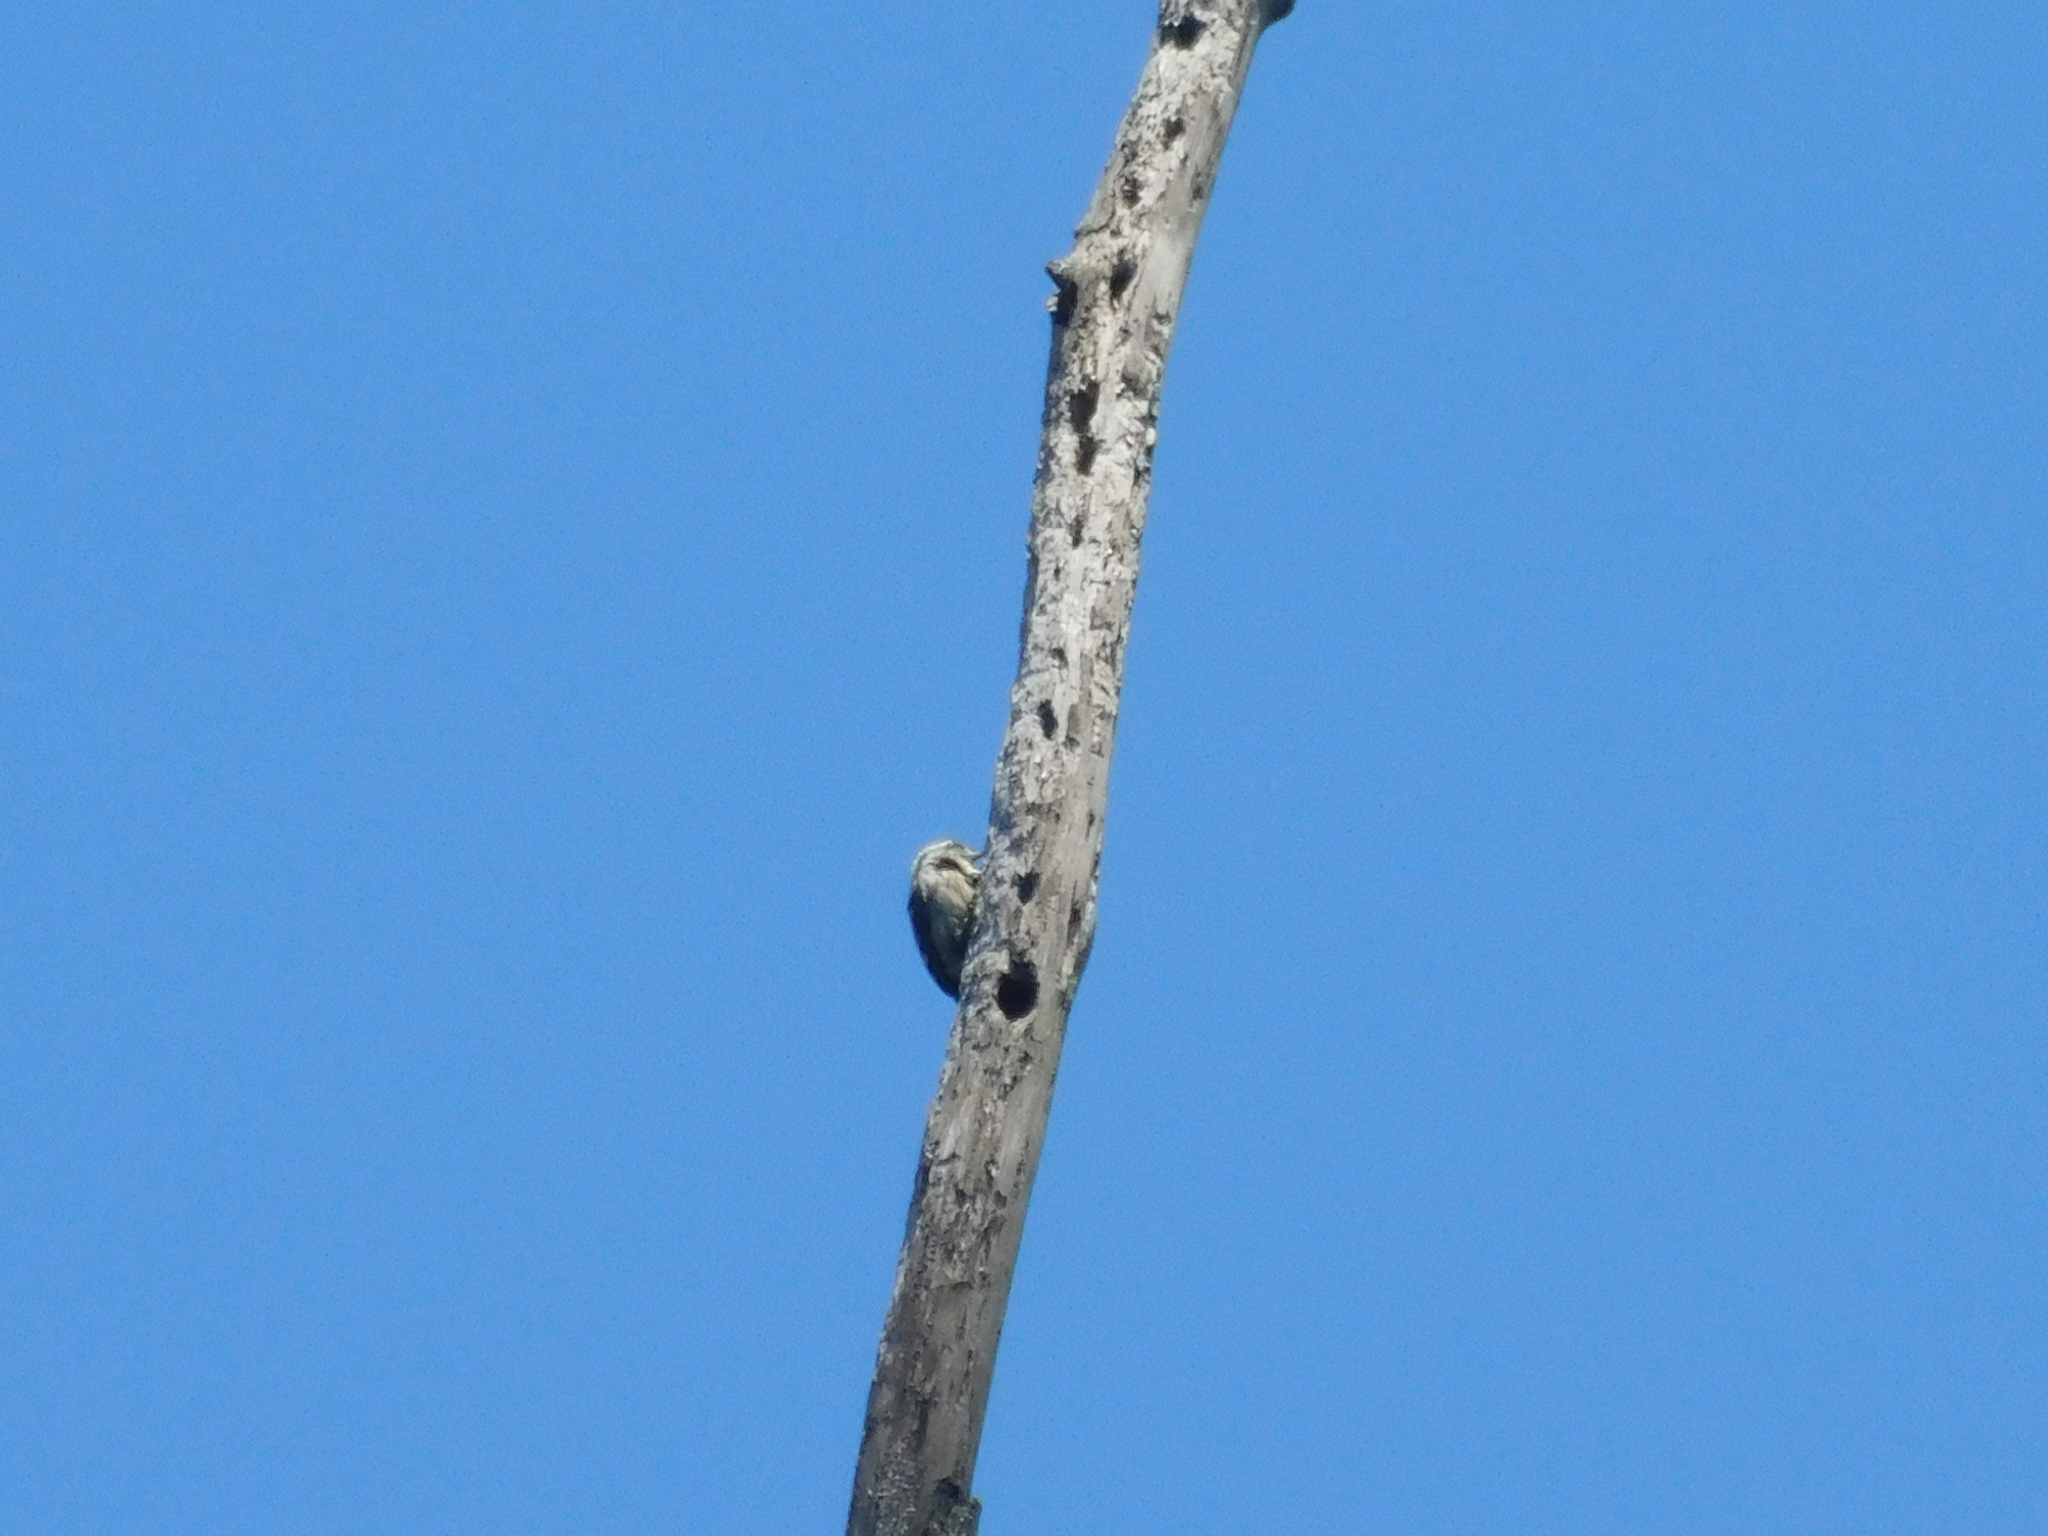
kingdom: Animalia
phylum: Chordata
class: Aves
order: Piciformes
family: Picidae
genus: Yungipicus
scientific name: Yungipicus moluccensis
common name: Sunda pygmy woodpecker
